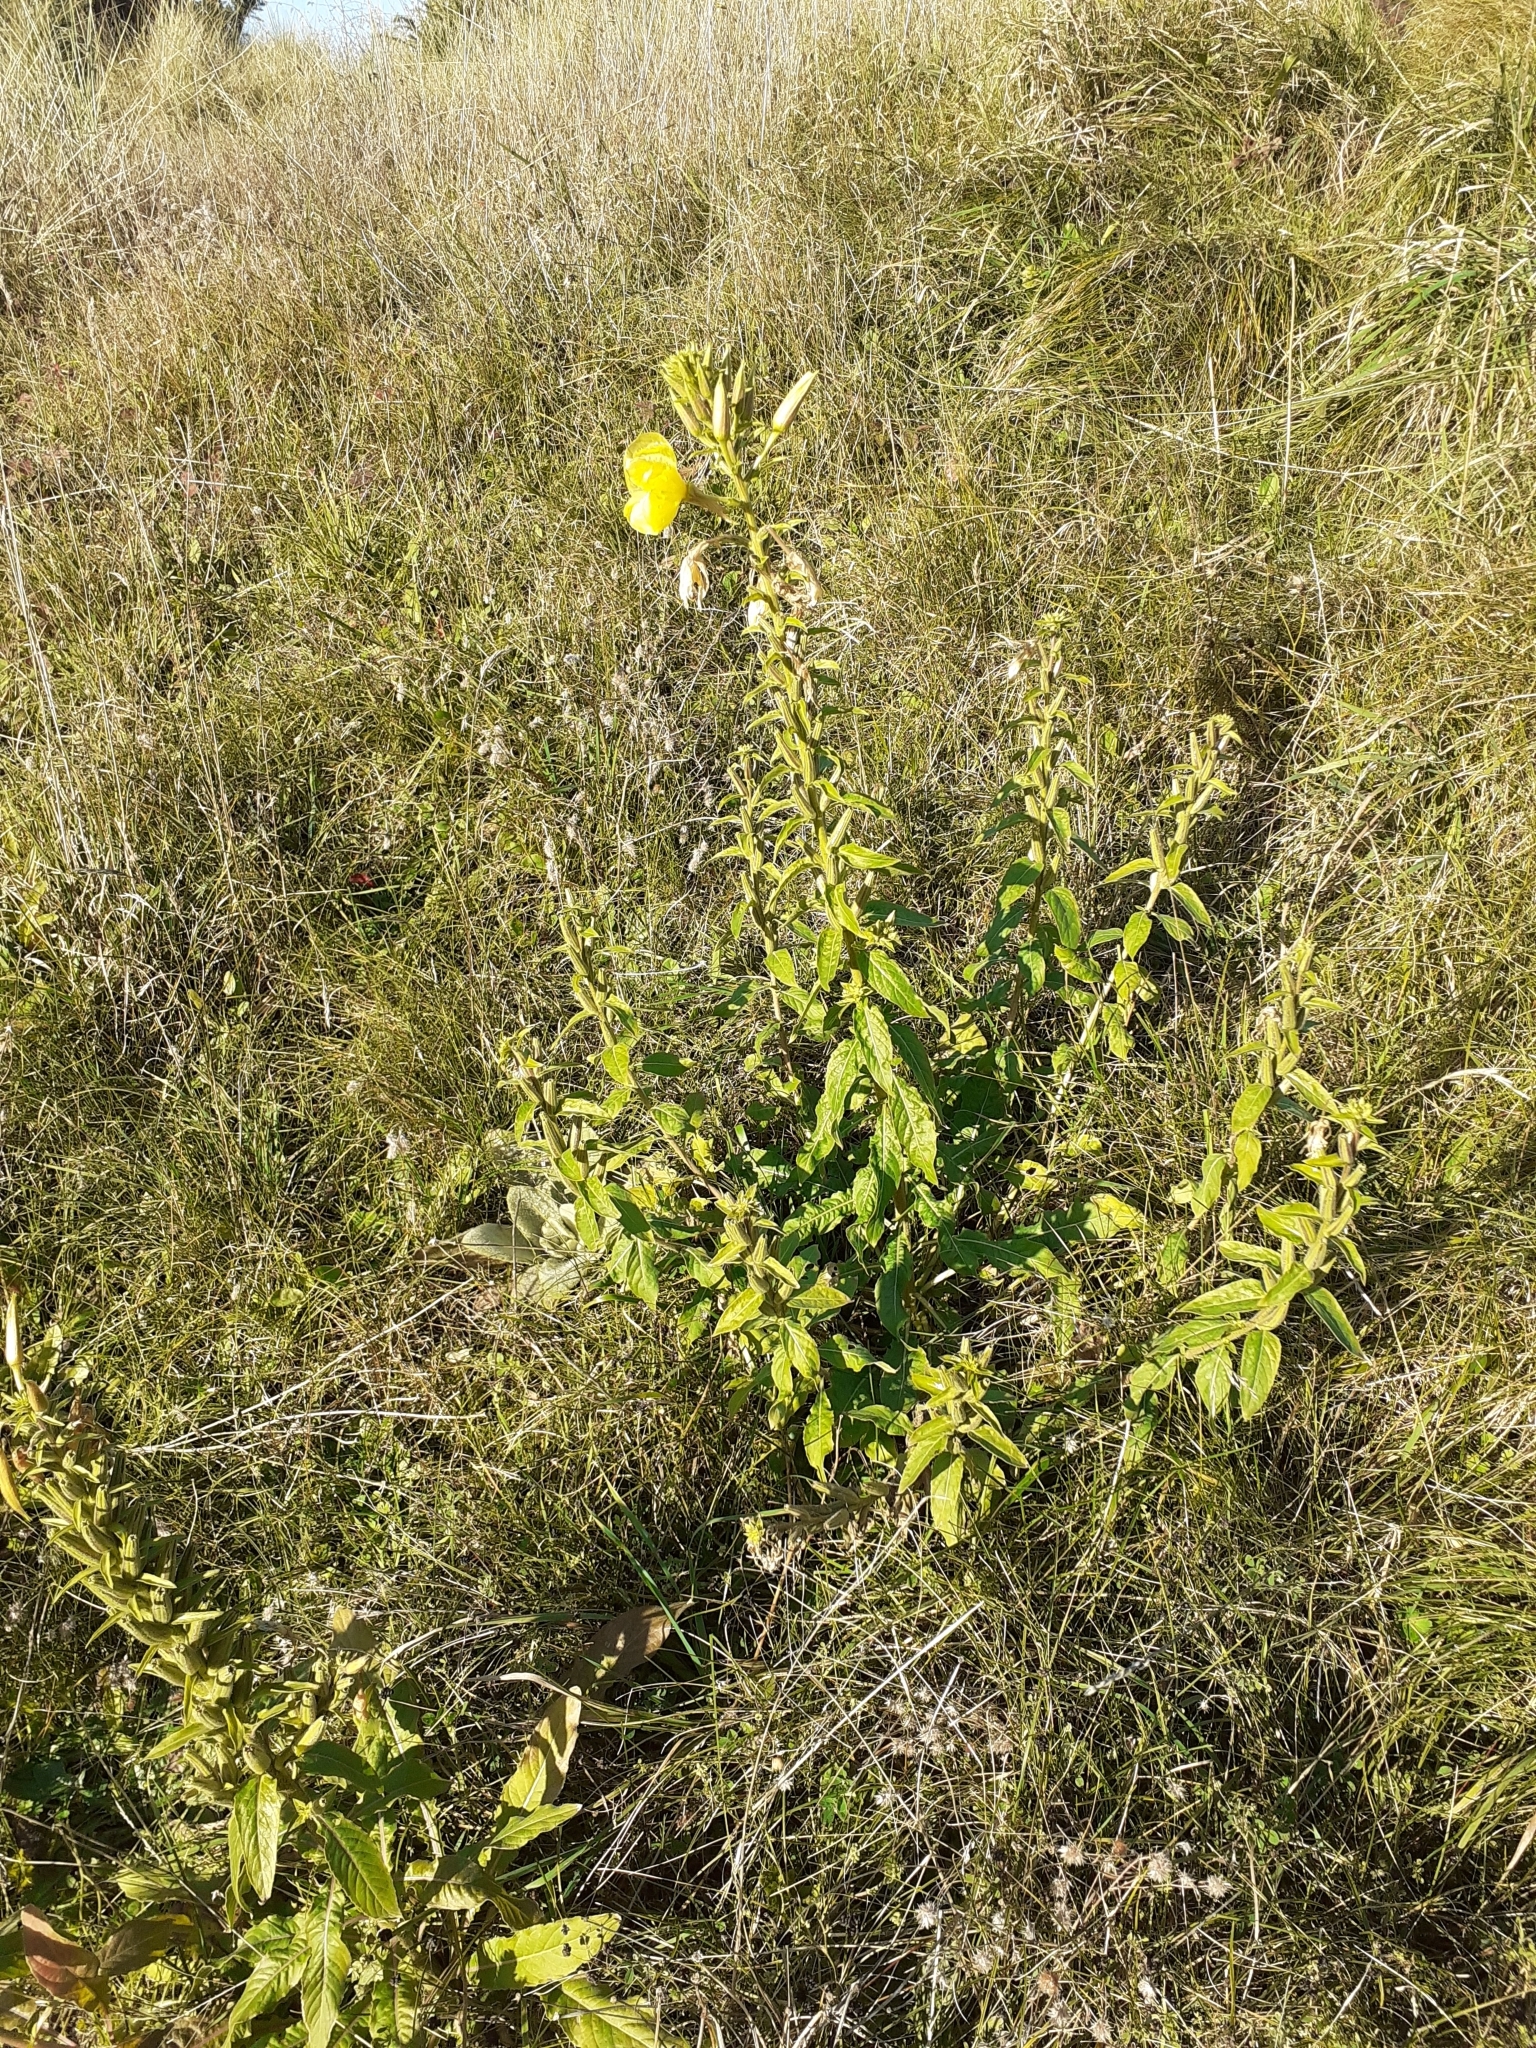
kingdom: Plantae
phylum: Tracheophyta
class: Magnoliopsida
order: Myrtales
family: Onagraceae
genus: Oenothera
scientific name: Oenothera glazioviana
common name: Large-flowered evening-primrose
